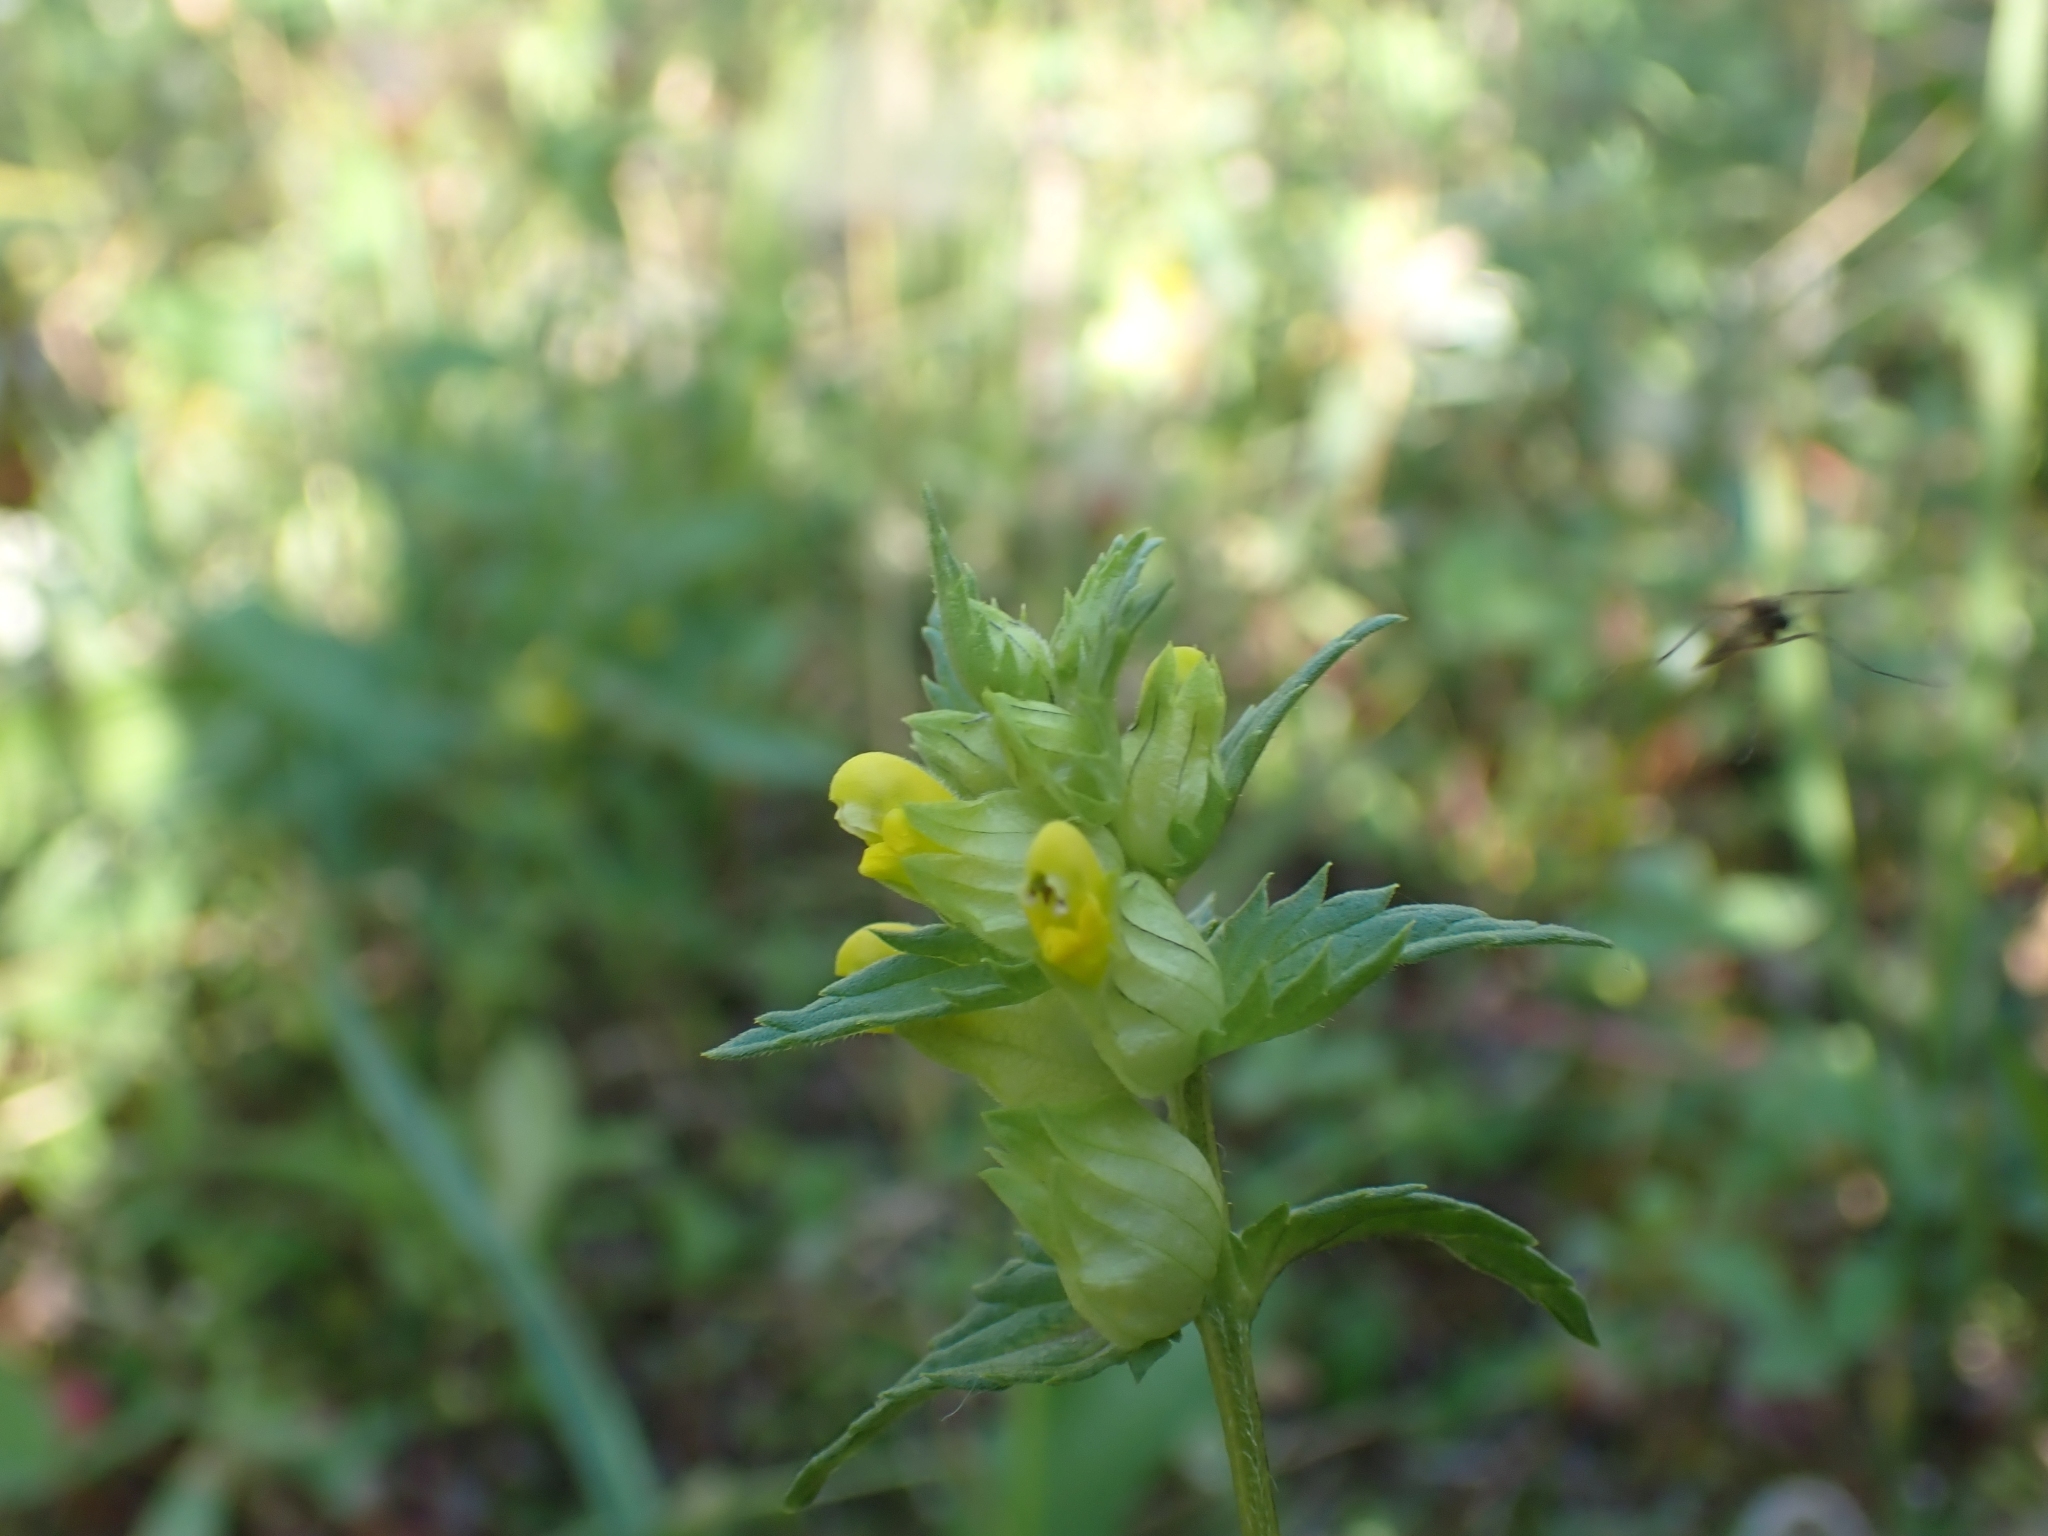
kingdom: Plantae
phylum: Tracheophyta
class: Magnoliopsida
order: Lamiales
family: Orobanchaceae
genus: Rhinanthus
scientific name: Rhinanthus groenlandicus
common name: Little yellow rattle
